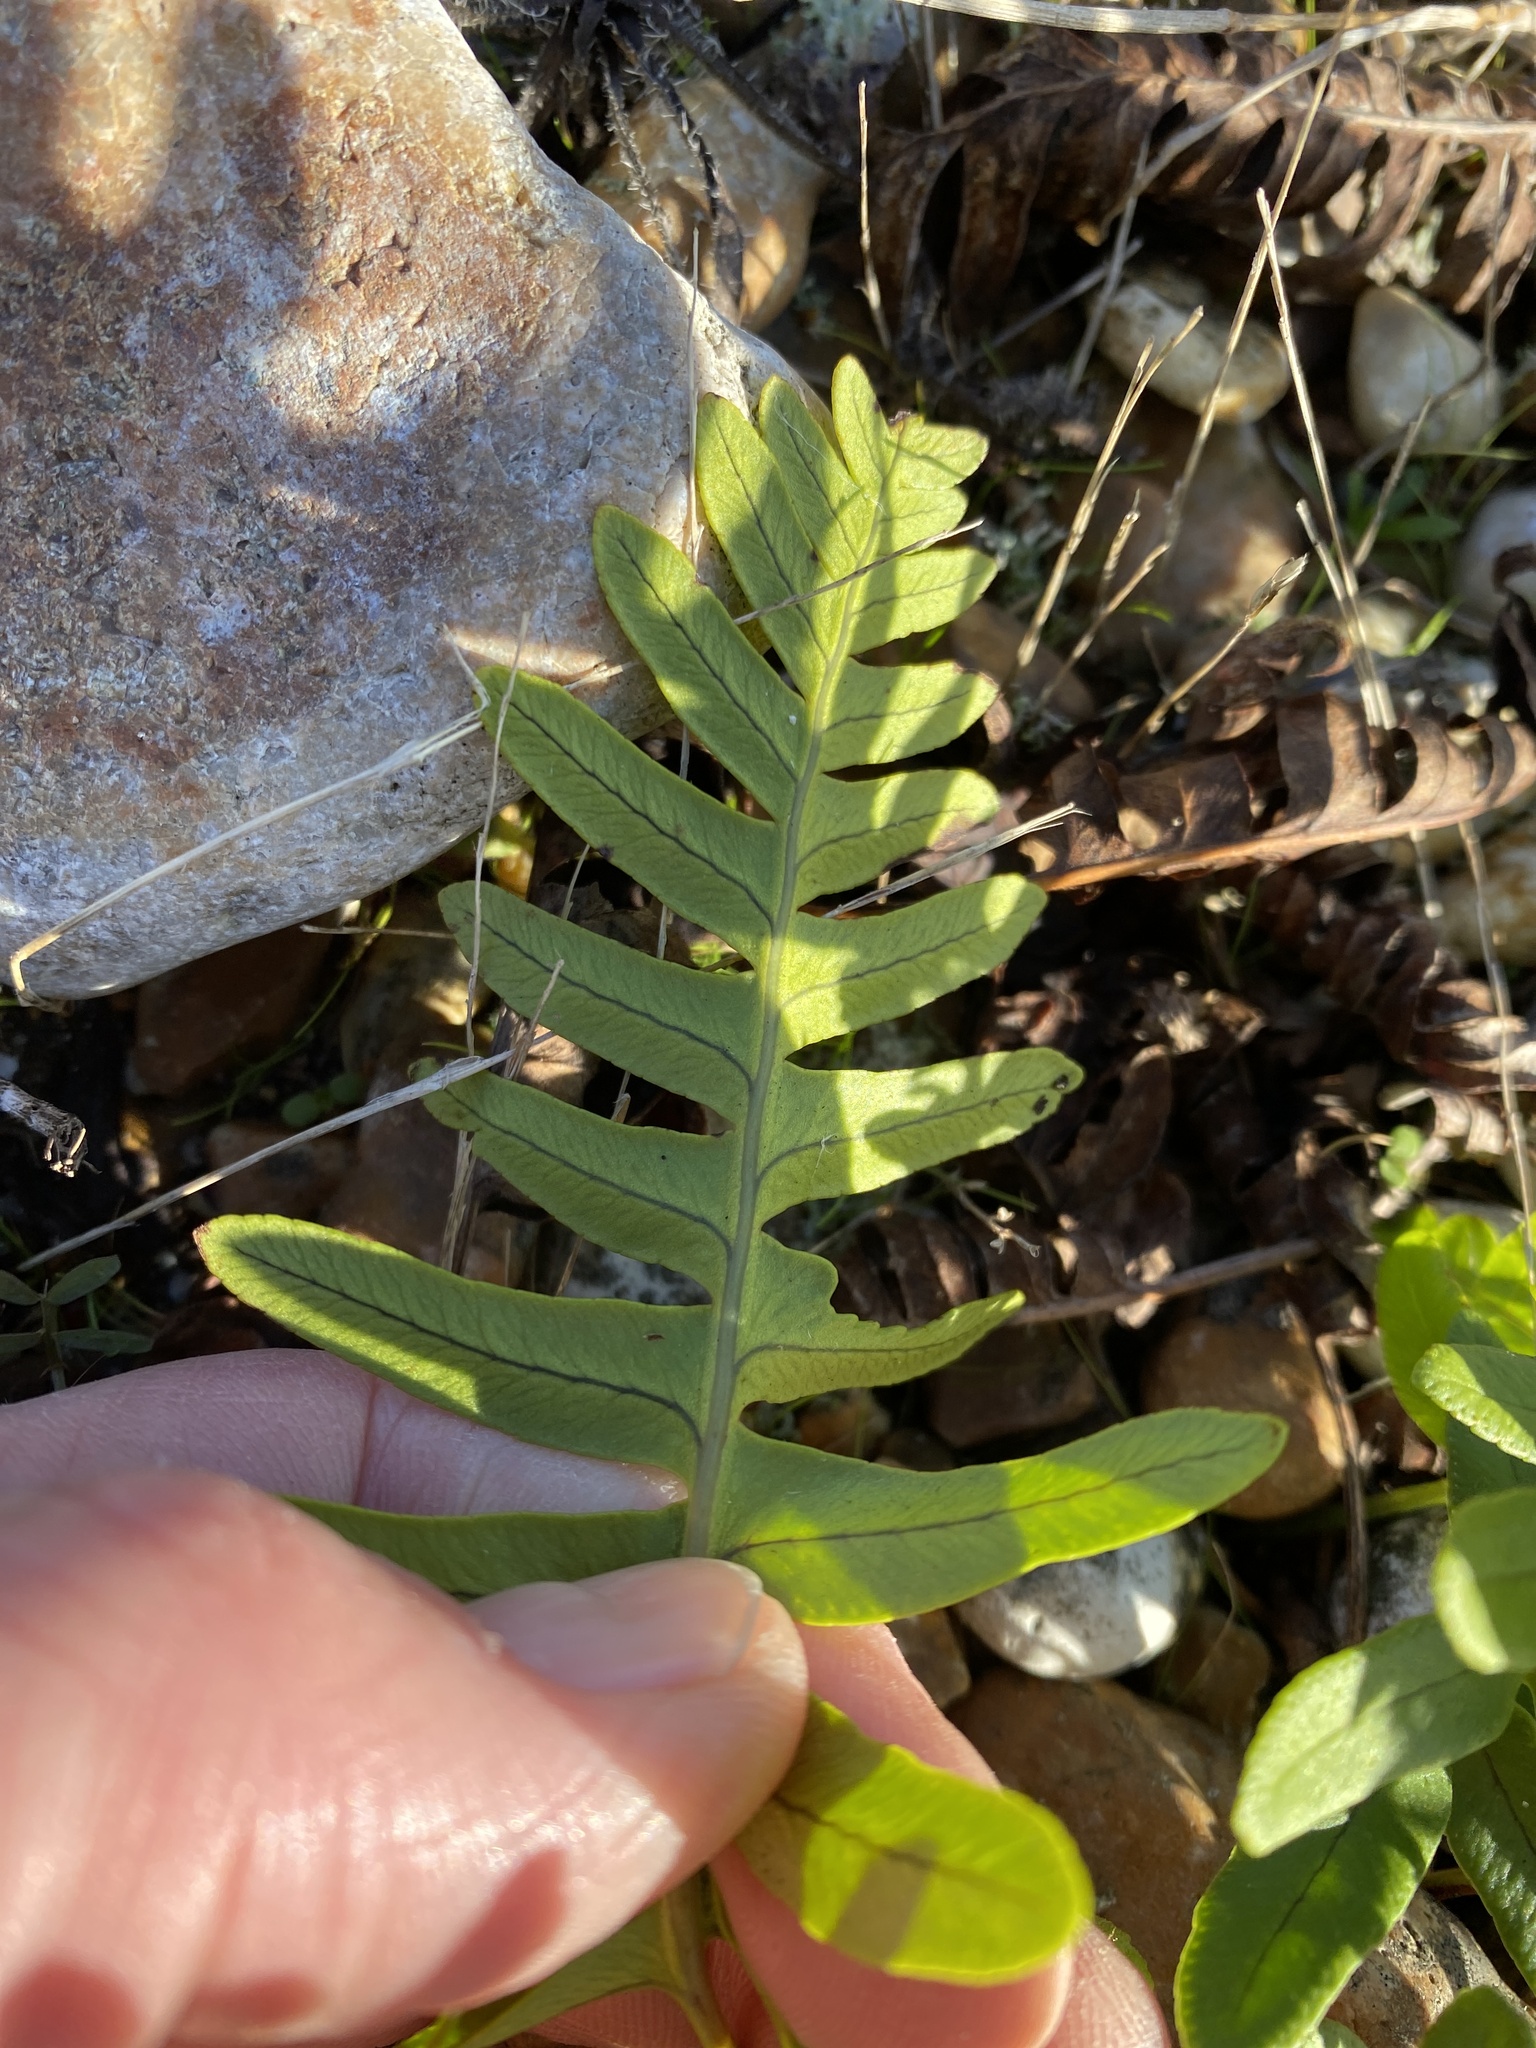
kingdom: Plantae
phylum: Tracheophyta
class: Polypodiopsida
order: Polypodiales
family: Polypodiaceae
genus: Polypodium
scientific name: Polypodium
